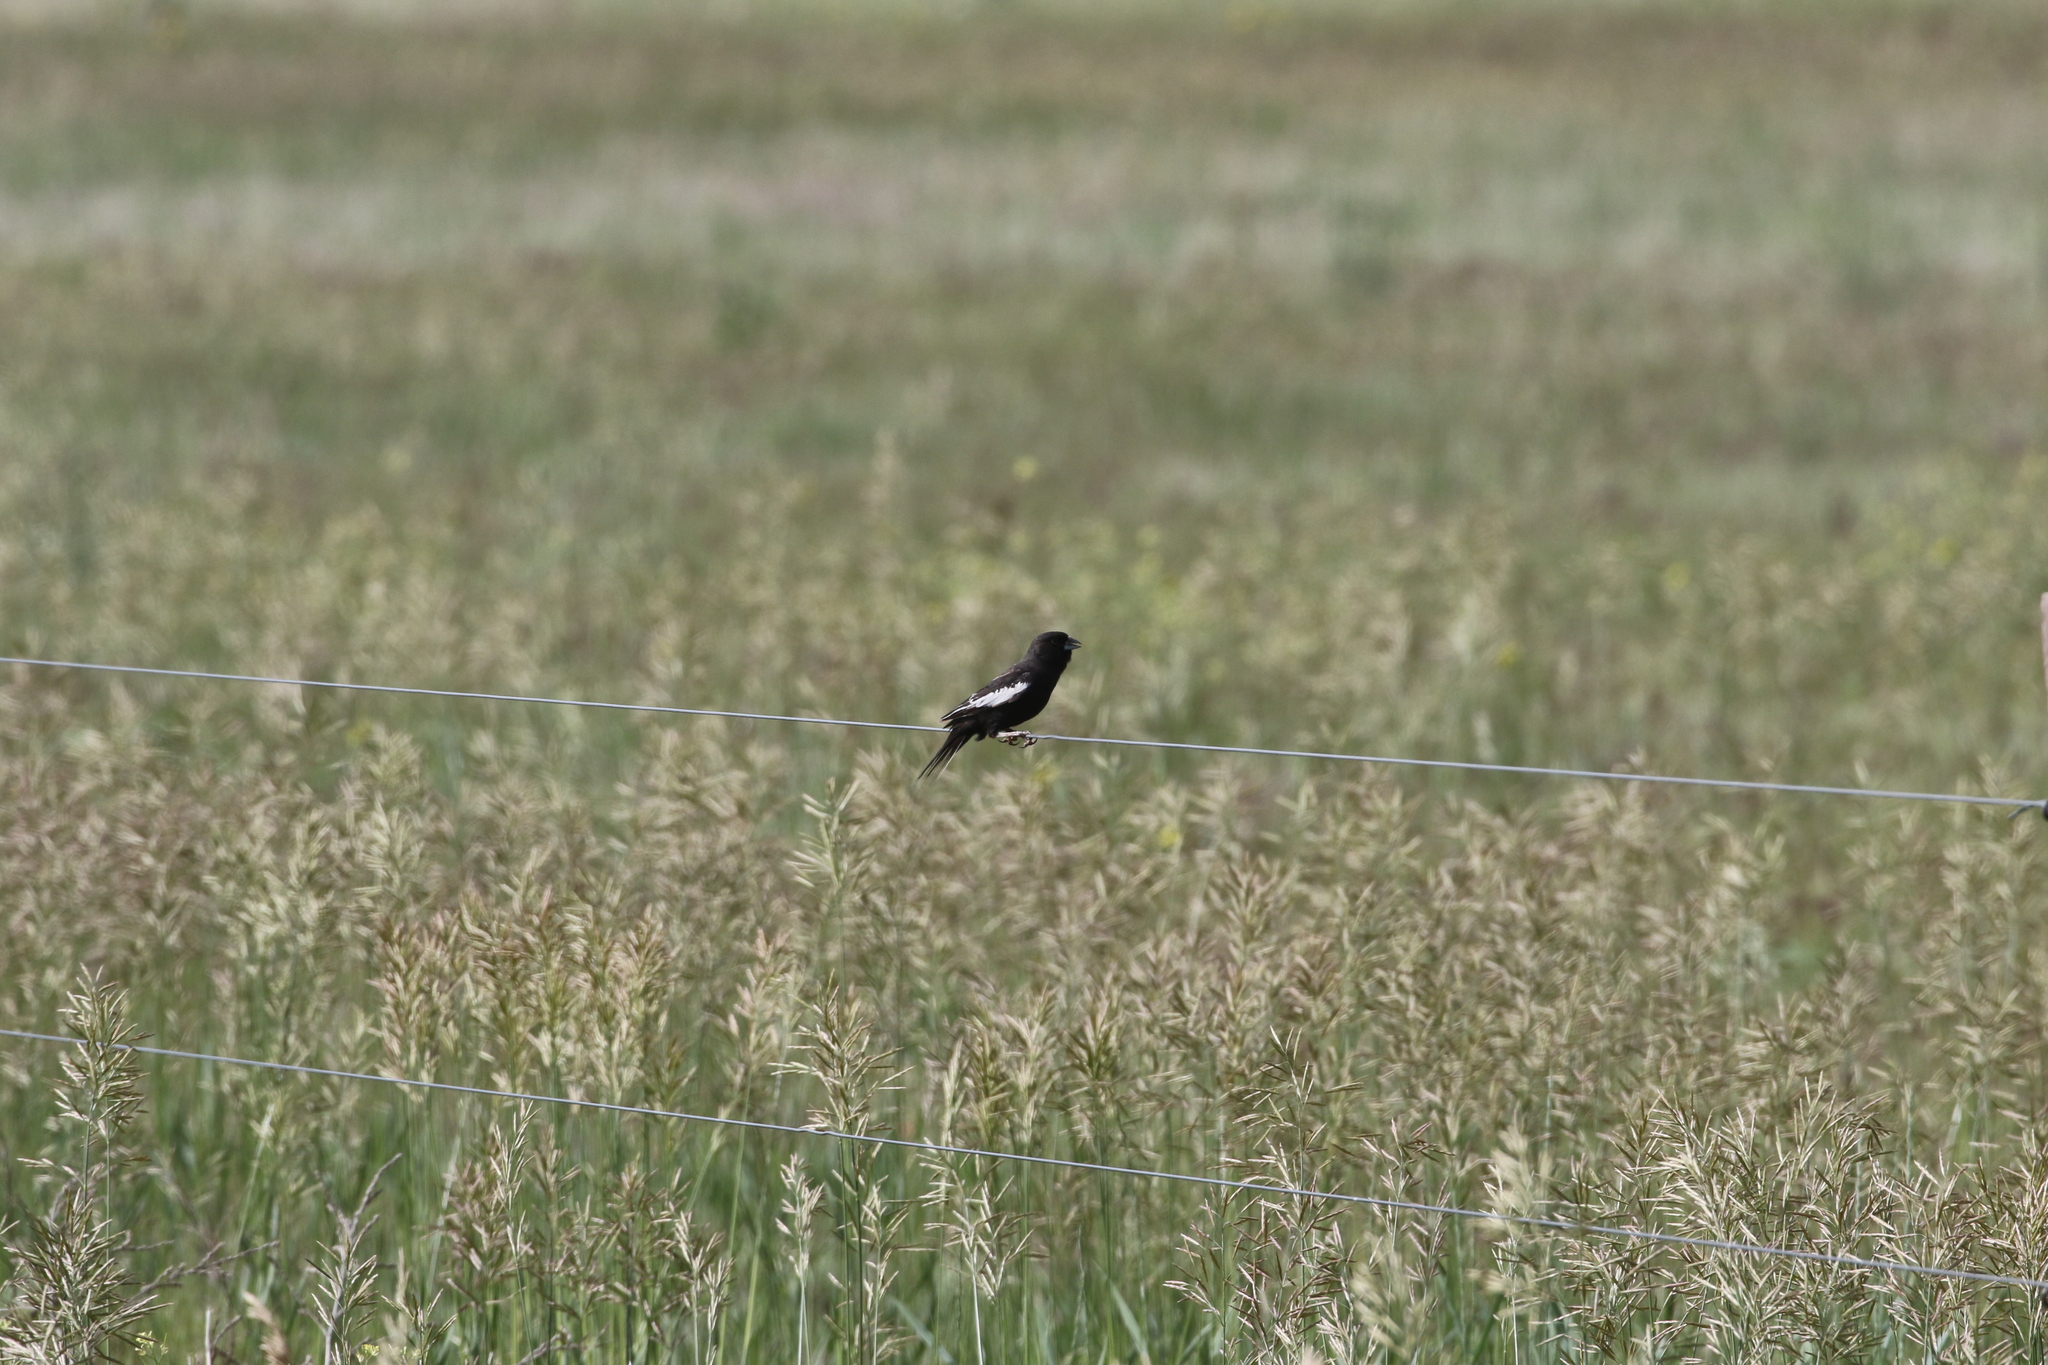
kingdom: Animalia
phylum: Chordata
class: Aves
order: Passeriformes
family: Passerellidae
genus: Calamospiza
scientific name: Calamospiza melanocorys
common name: Lark bunting
